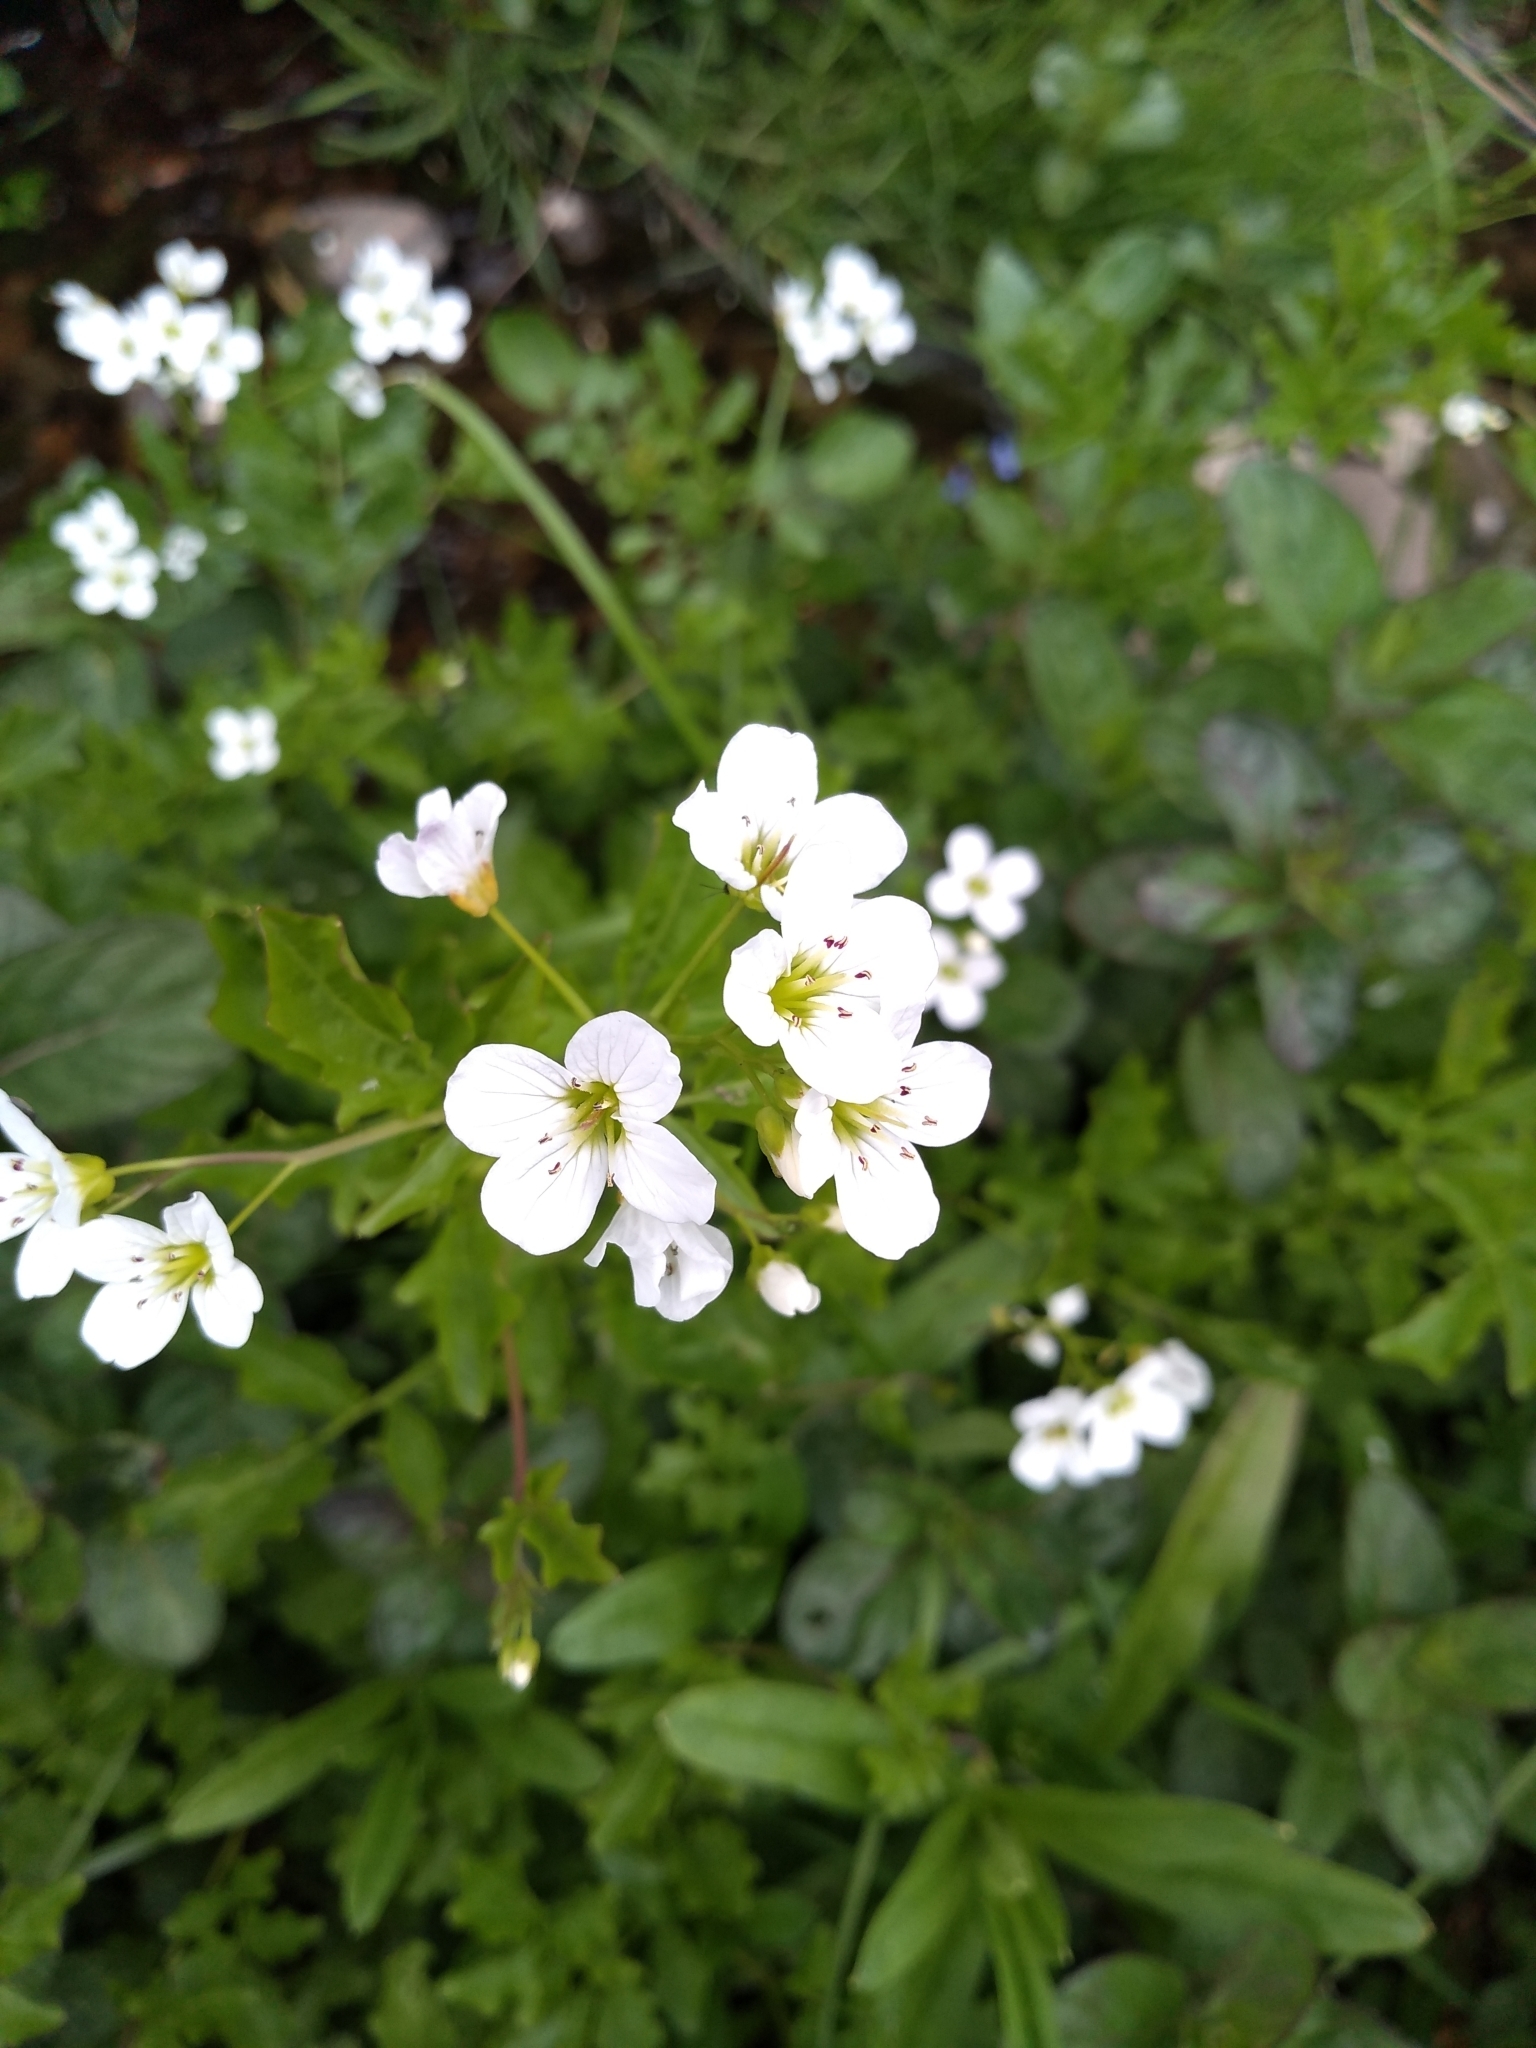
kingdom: Plantae
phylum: Tracheophyta
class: Magnoliopsida
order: Brassicales
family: Brassicaceae
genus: Cardamine
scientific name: Cardamine amara
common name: Large bitter-cress
